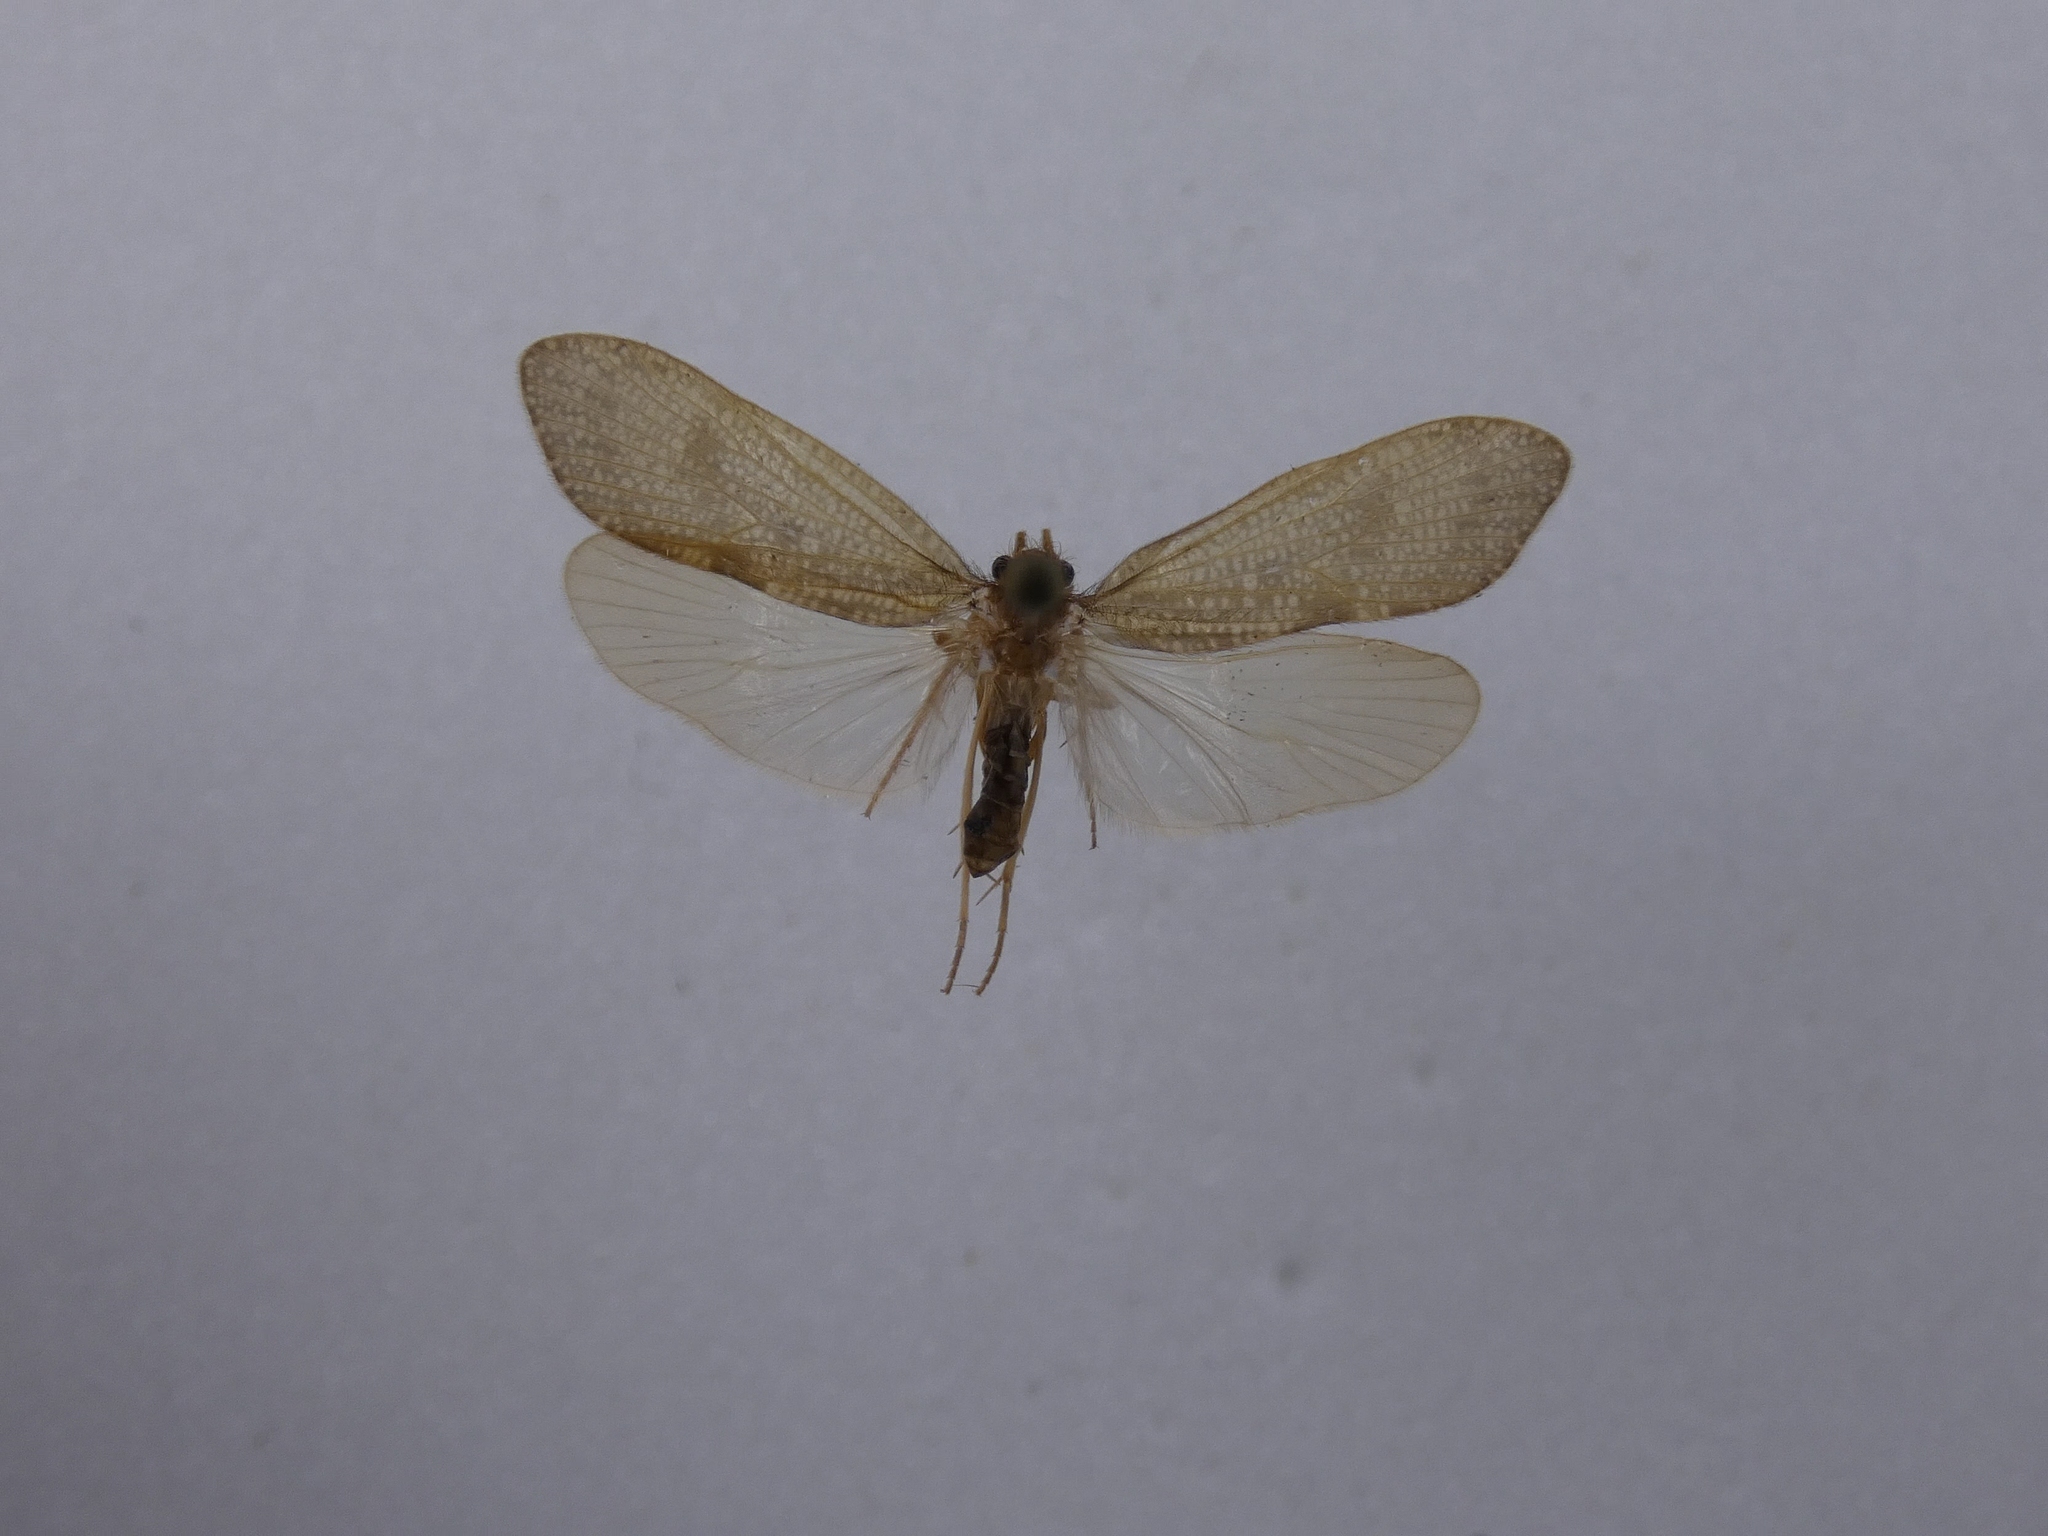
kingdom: Animalia
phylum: Arthropoda
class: Insecta
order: Trichoptera
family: Oeconesidae
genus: Oeconesus
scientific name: Oeconesus maori
